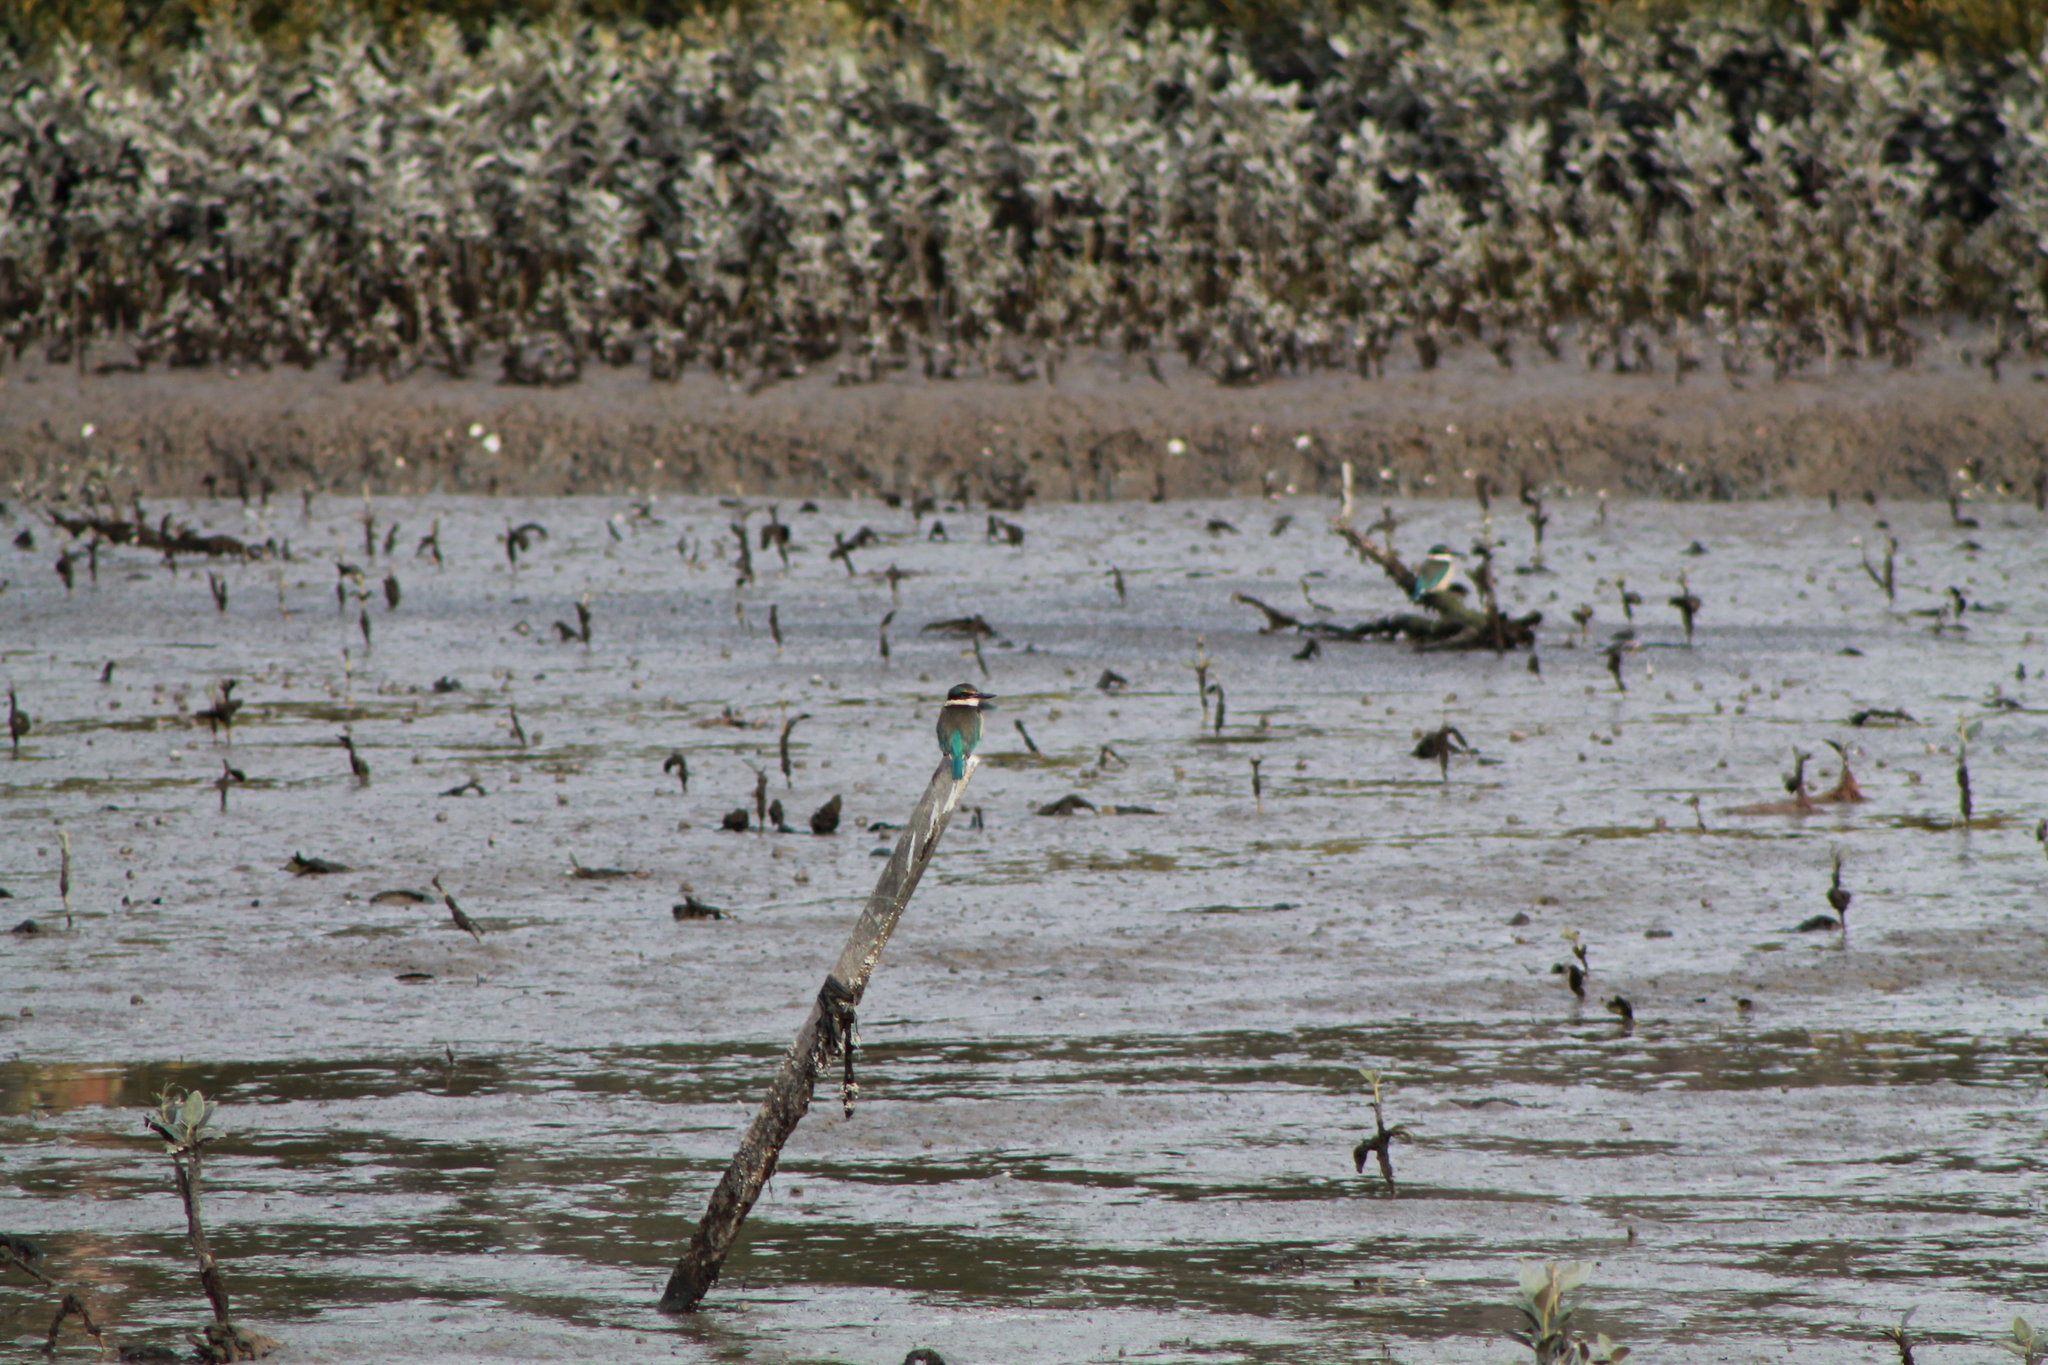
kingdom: Animalia
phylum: Chordata
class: Aves
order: Coraciiformes
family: Alcedinidae
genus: Todiramphus
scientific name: Todiramphus sanctus
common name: Sacred kingfisher
